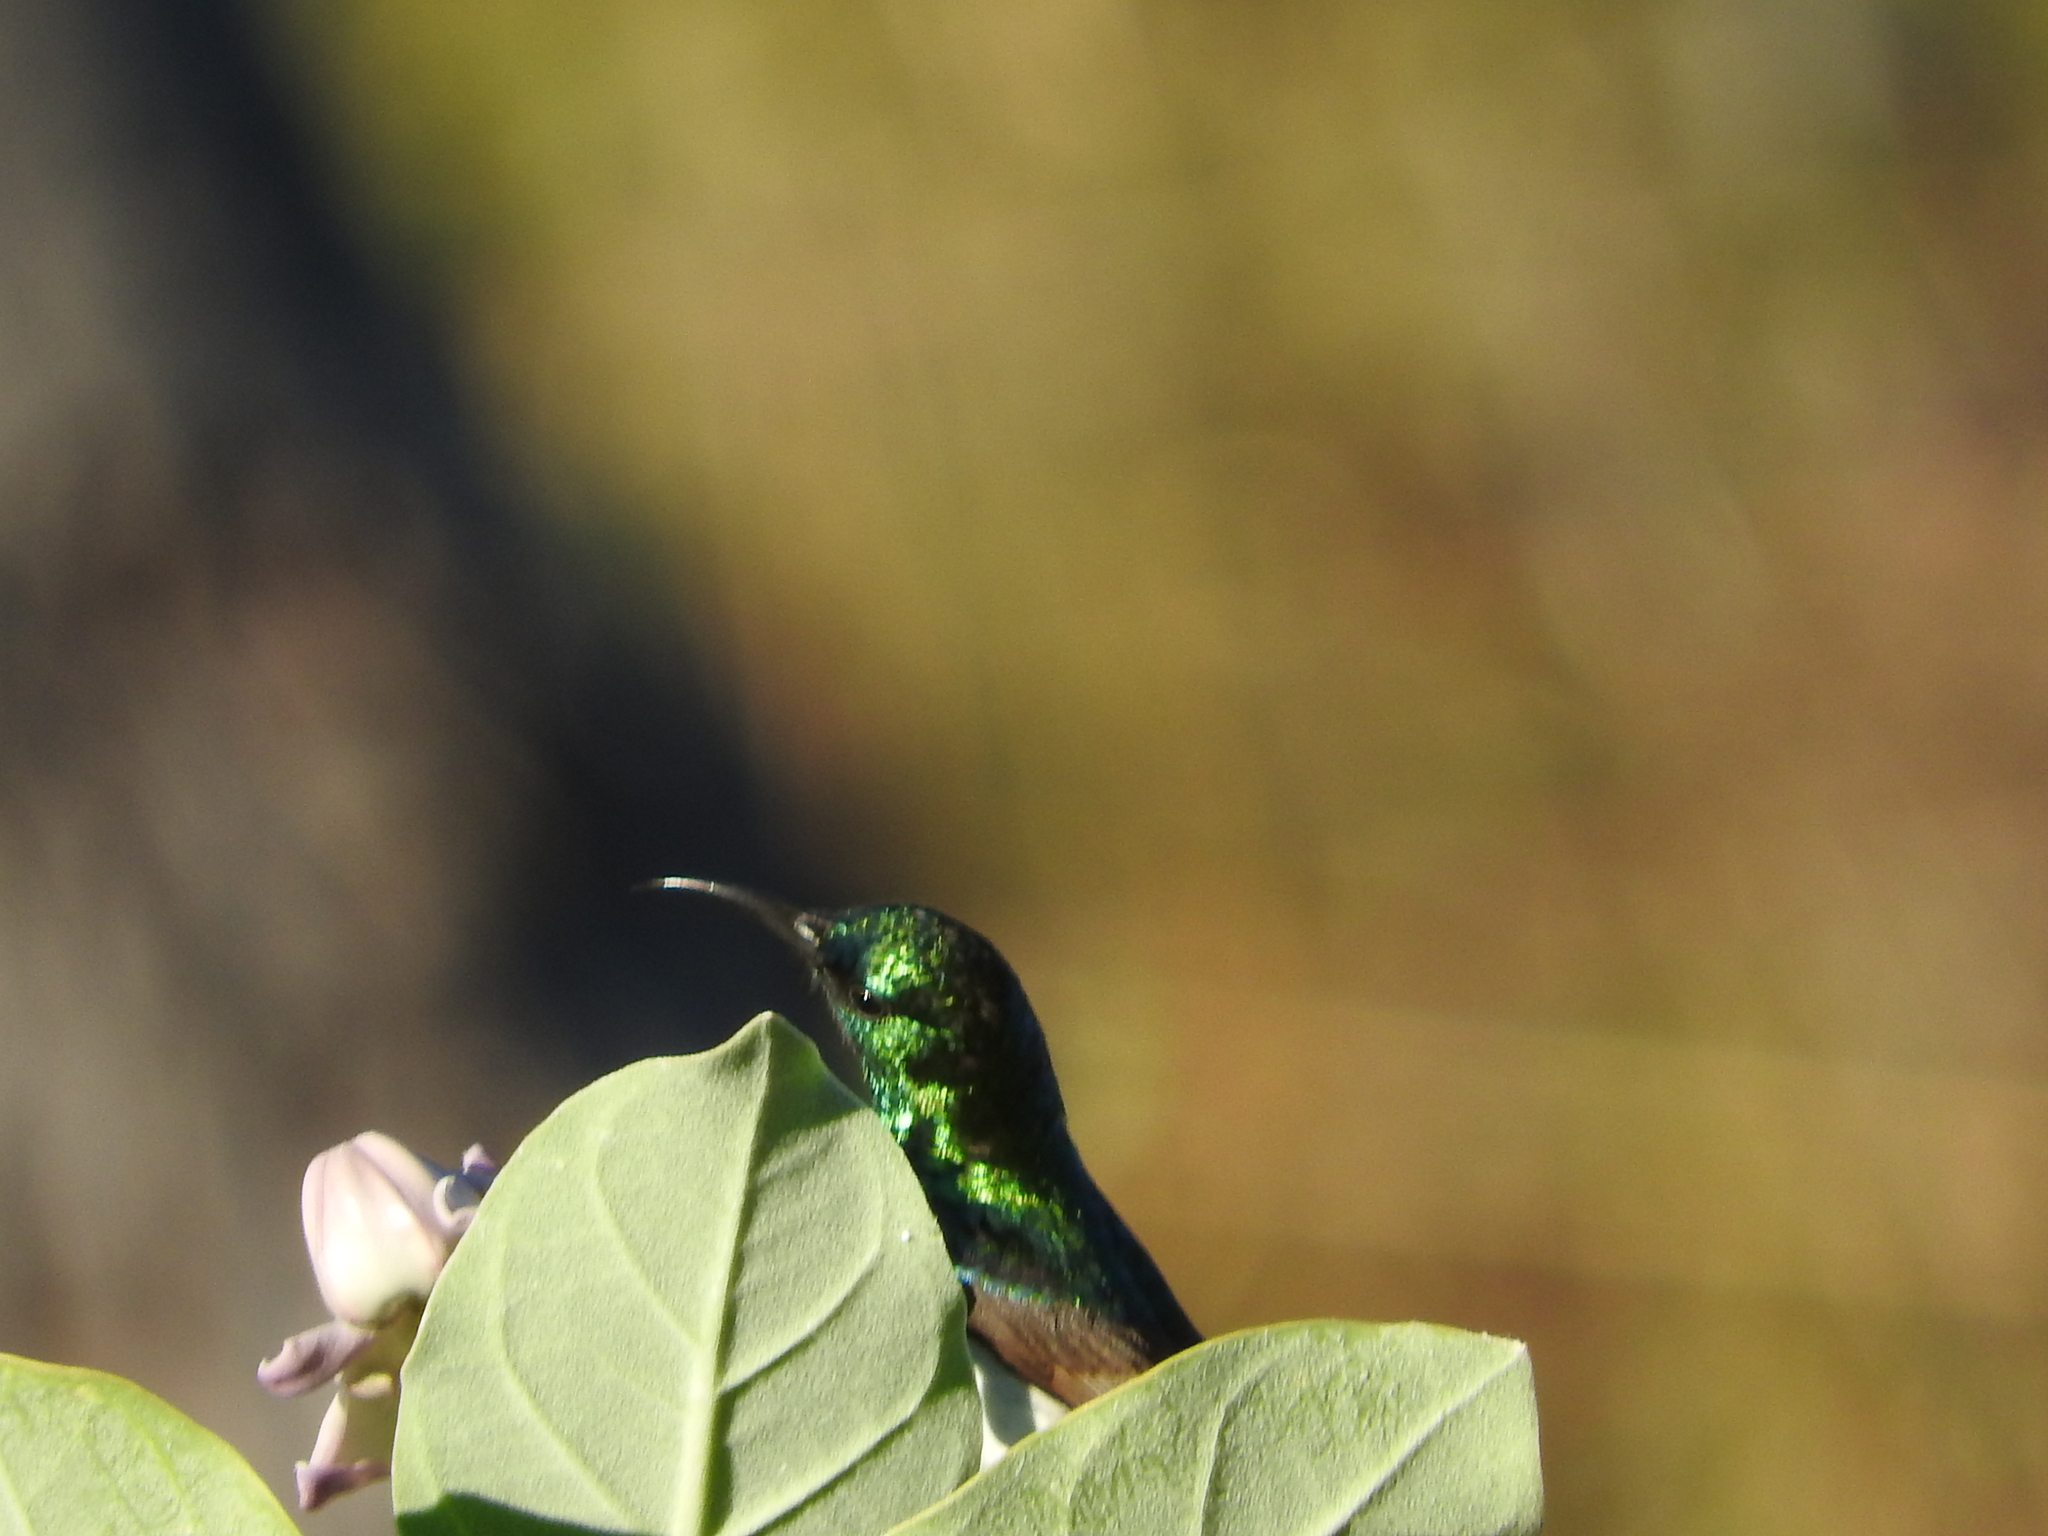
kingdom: Animalia
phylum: Chordata
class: Aves
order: Passeriformes
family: Nectariniidae
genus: Cinnyris
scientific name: Cinnyris talatala
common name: White-bellied sunbird
